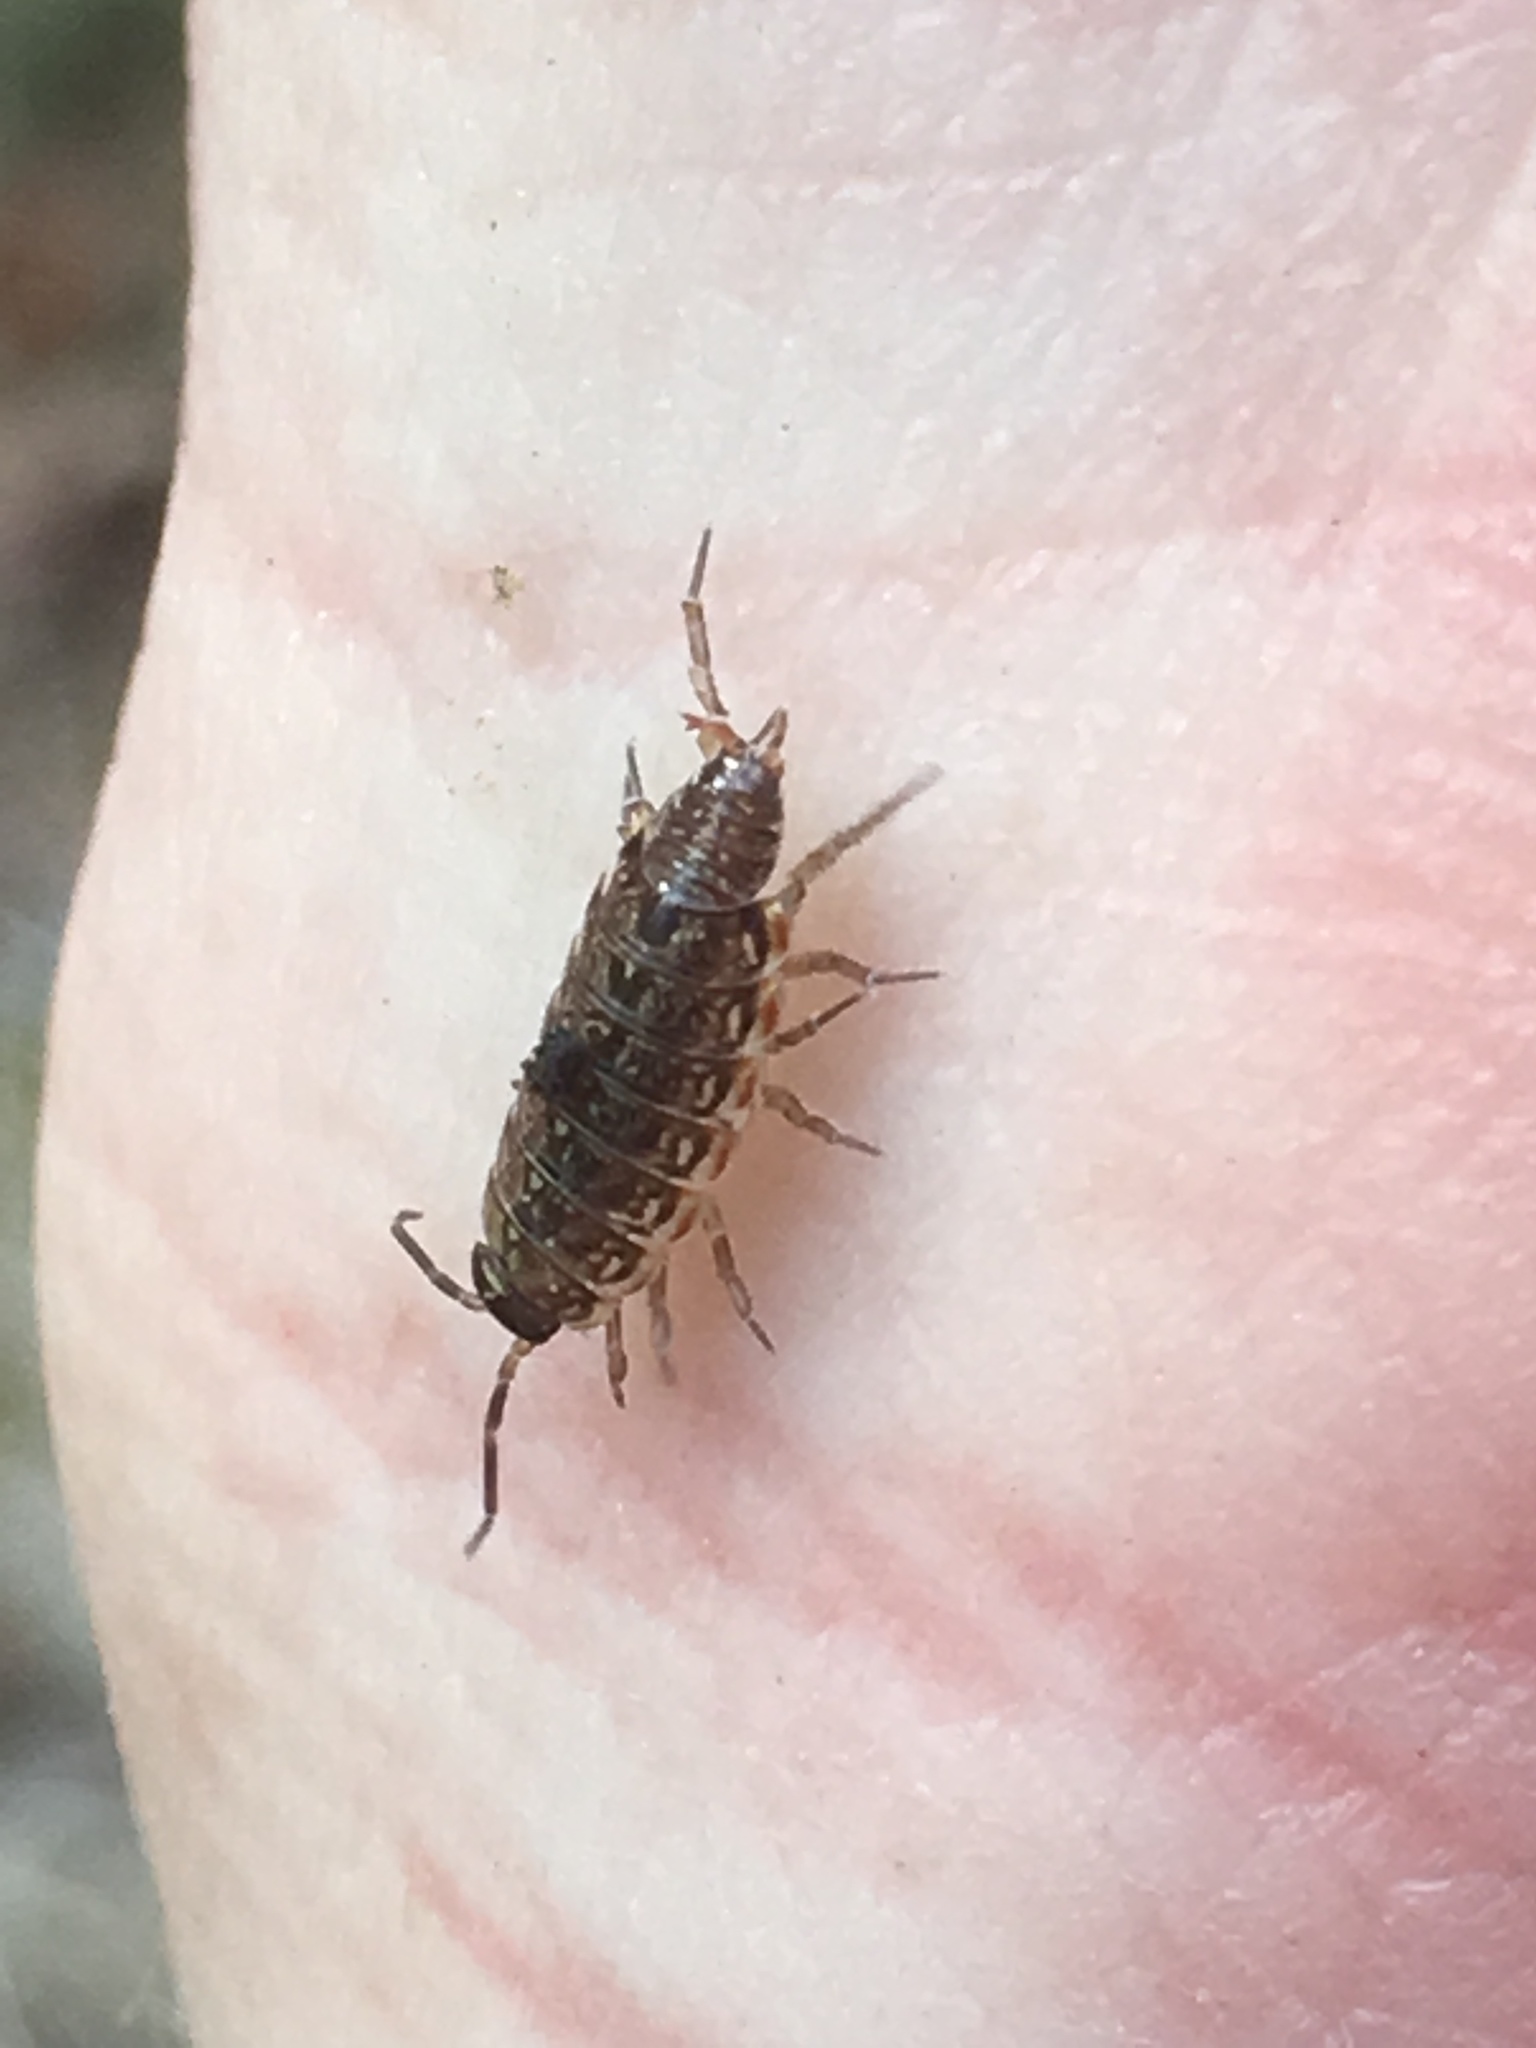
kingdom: Animalia
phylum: Arthropoda
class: Malacostraca
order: Isopoda
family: Philosciidae
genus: Philoscia
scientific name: Philoscia muscorum
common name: Common striped woodlouse
